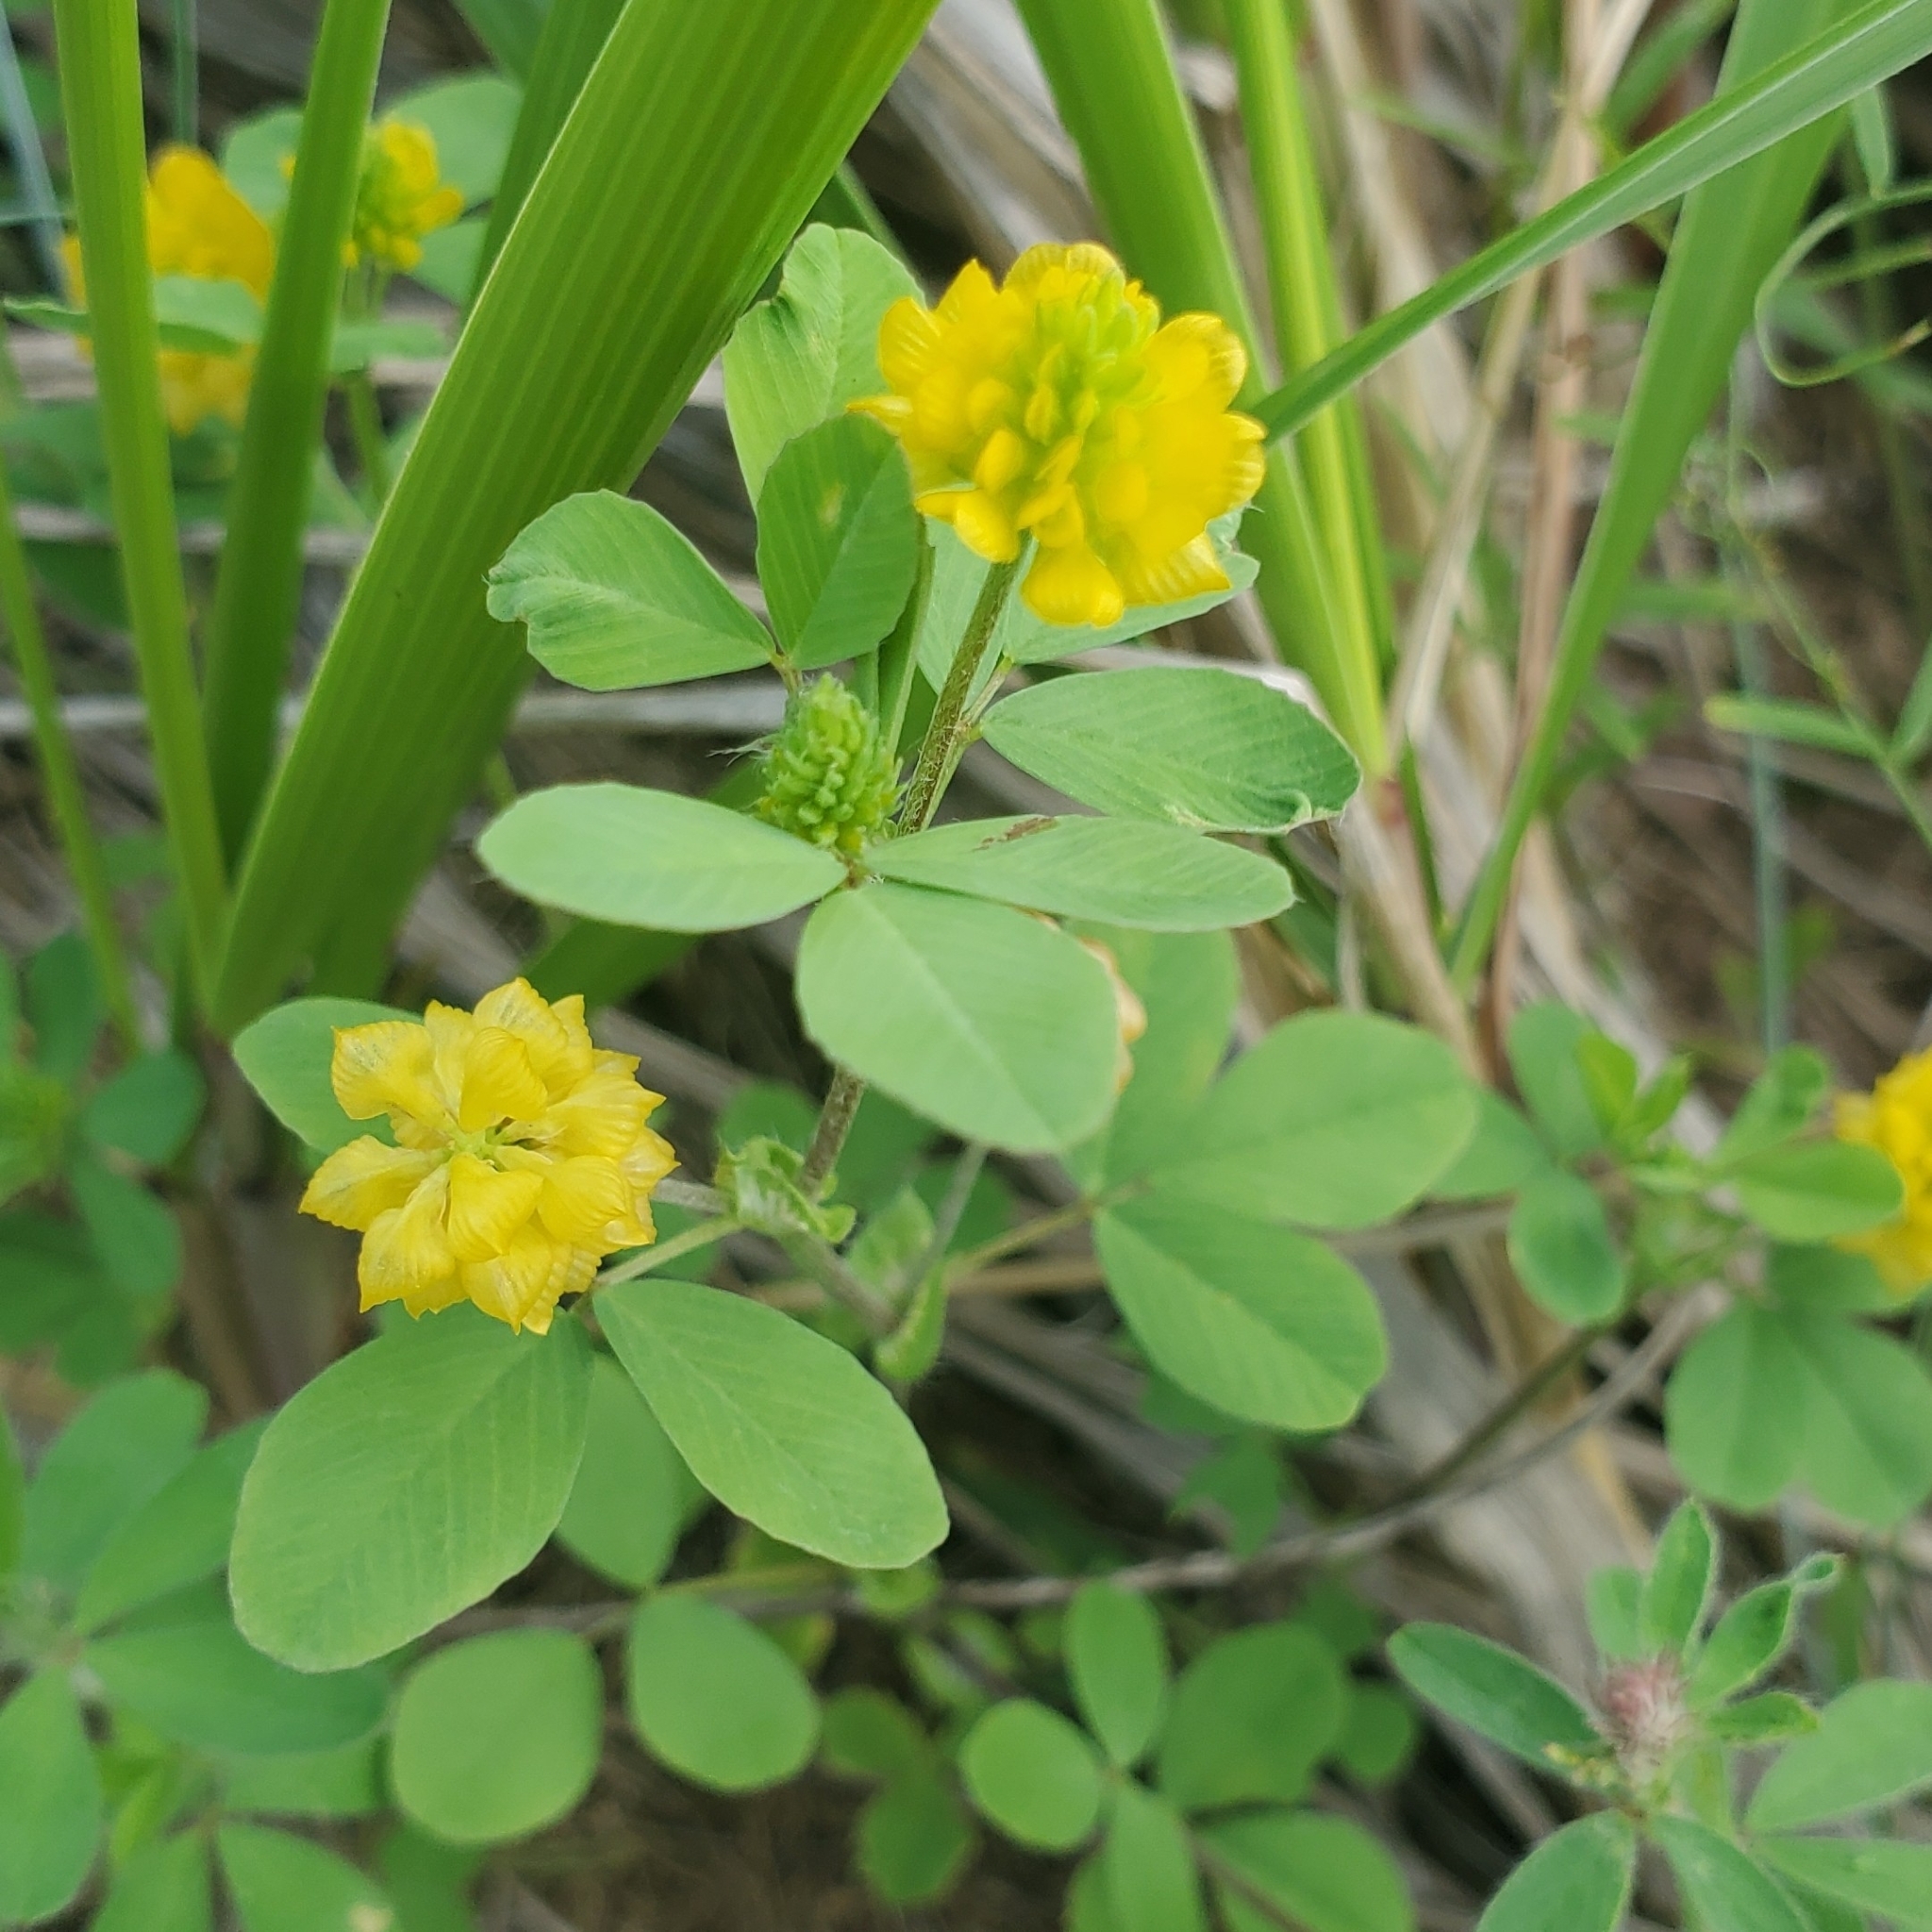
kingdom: Plantae
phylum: Tracheophyta
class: Magnoliopsida
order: Fabales
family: Fabaceae
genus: Trifolium
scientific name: Trifolium campestre
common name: Field clover
